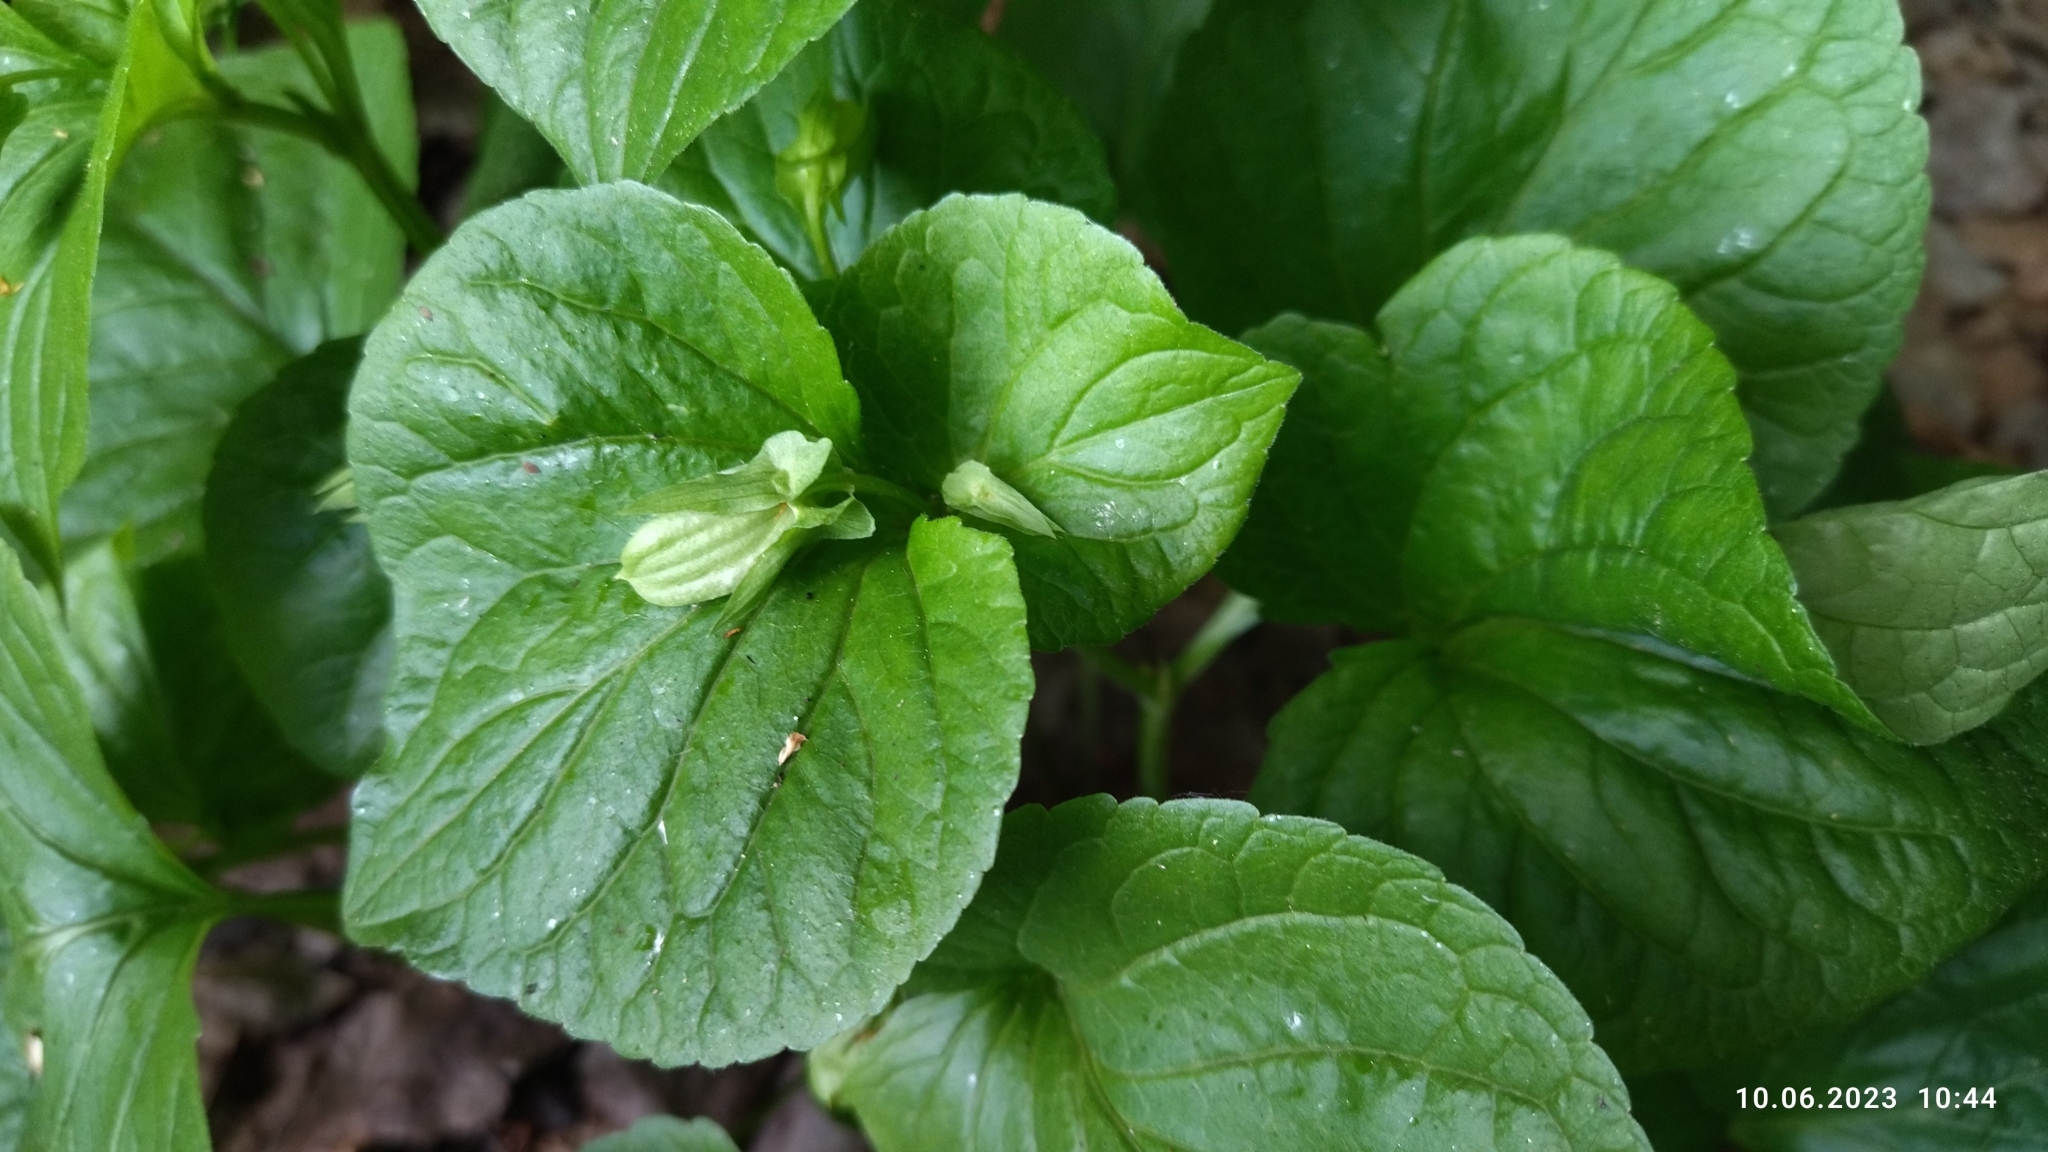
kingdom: Plantae
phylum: Tracheophyta
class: Magnoliopsida
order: Malpighiales
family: Violaceae
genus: Viola
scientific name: Viola mirabilis
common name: Wonder violet
